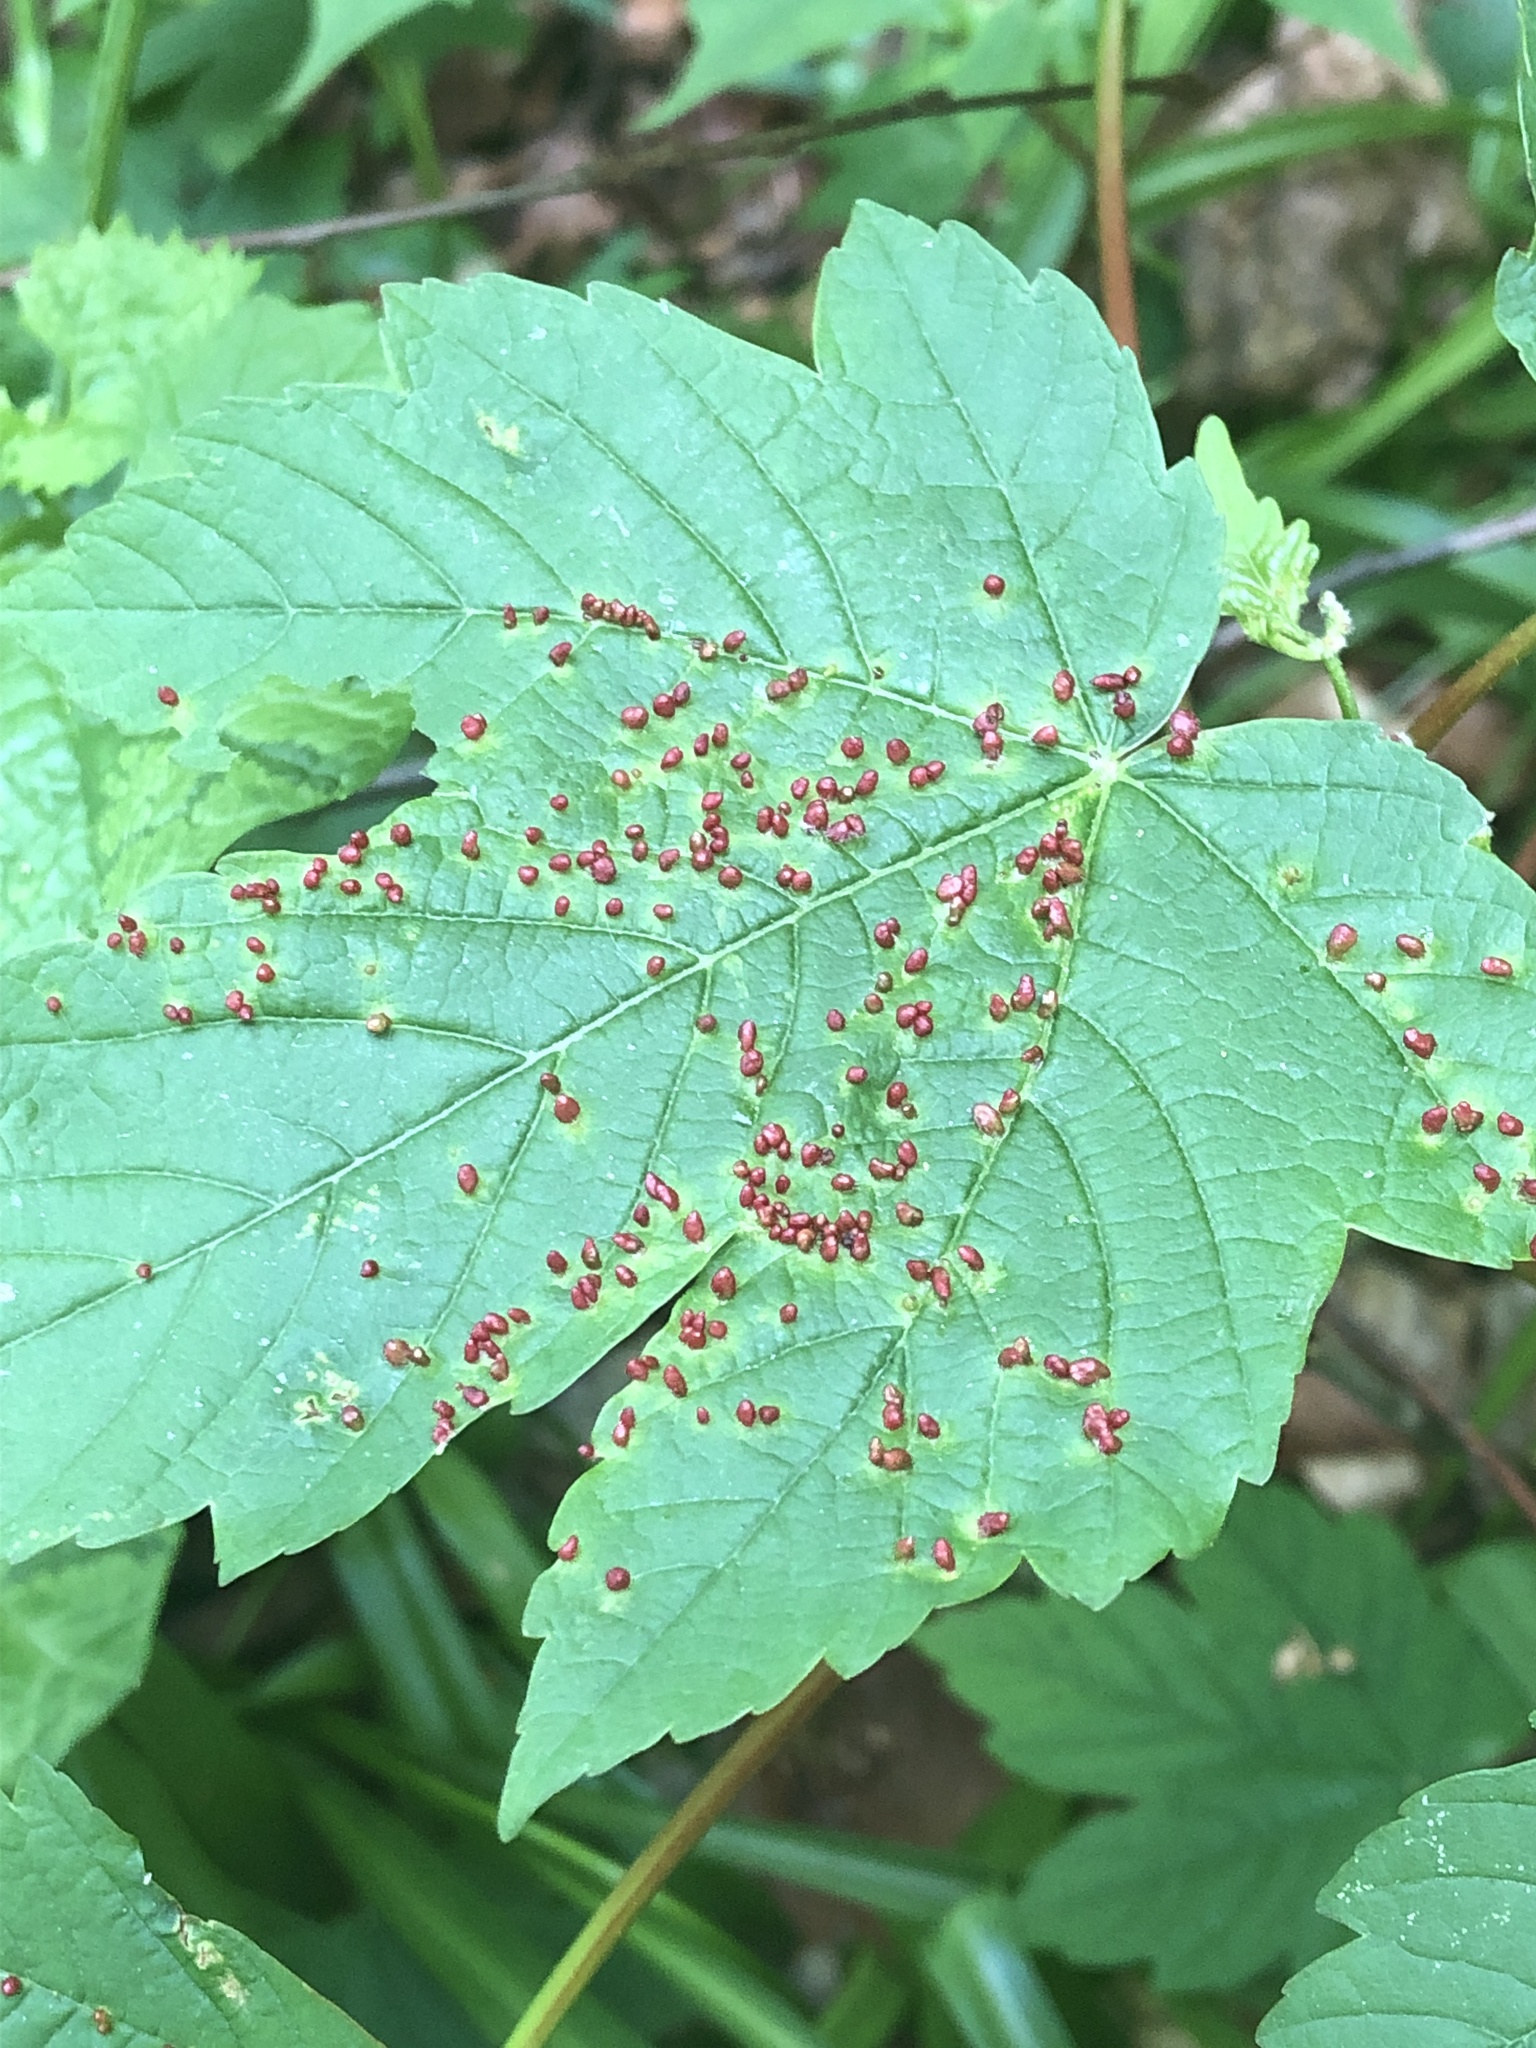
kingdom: Animalia
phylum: Arthropoda
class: Arachnida
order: Trombidiformes
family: Eriophyidae
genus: Aceria
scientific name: Aceria cephaloneus
